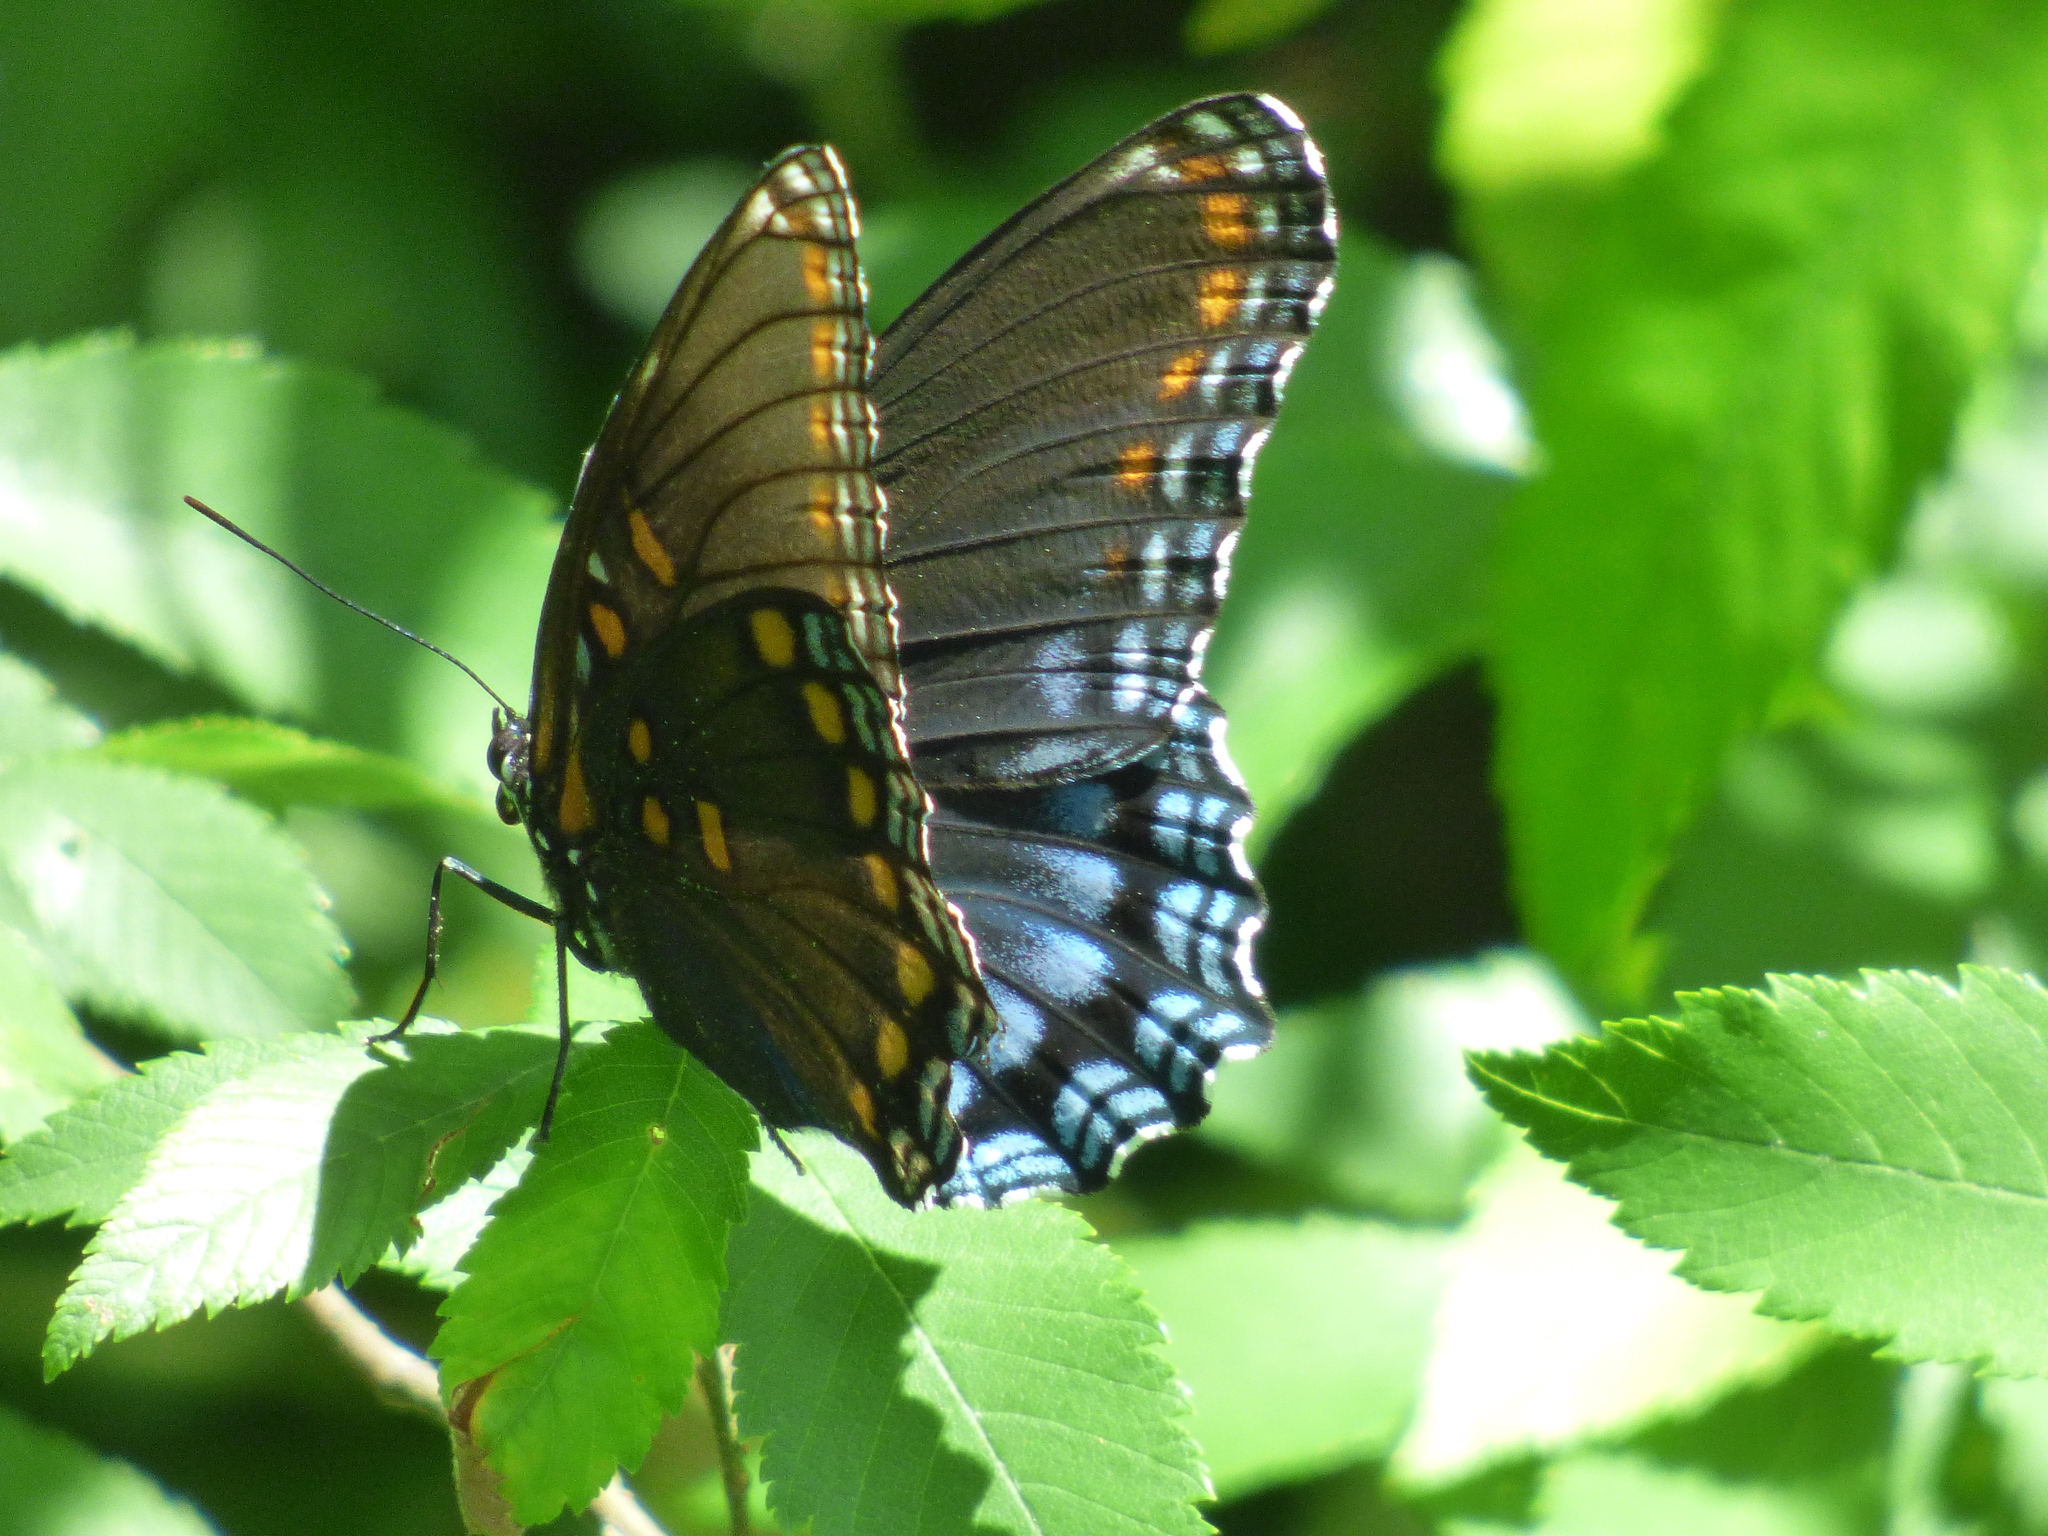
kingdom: Animalia
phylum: Arthropoda
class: Insecta
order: Lepidoptera
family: Nymphalidae
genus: Limenitis
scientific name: Limenitis astyanax
